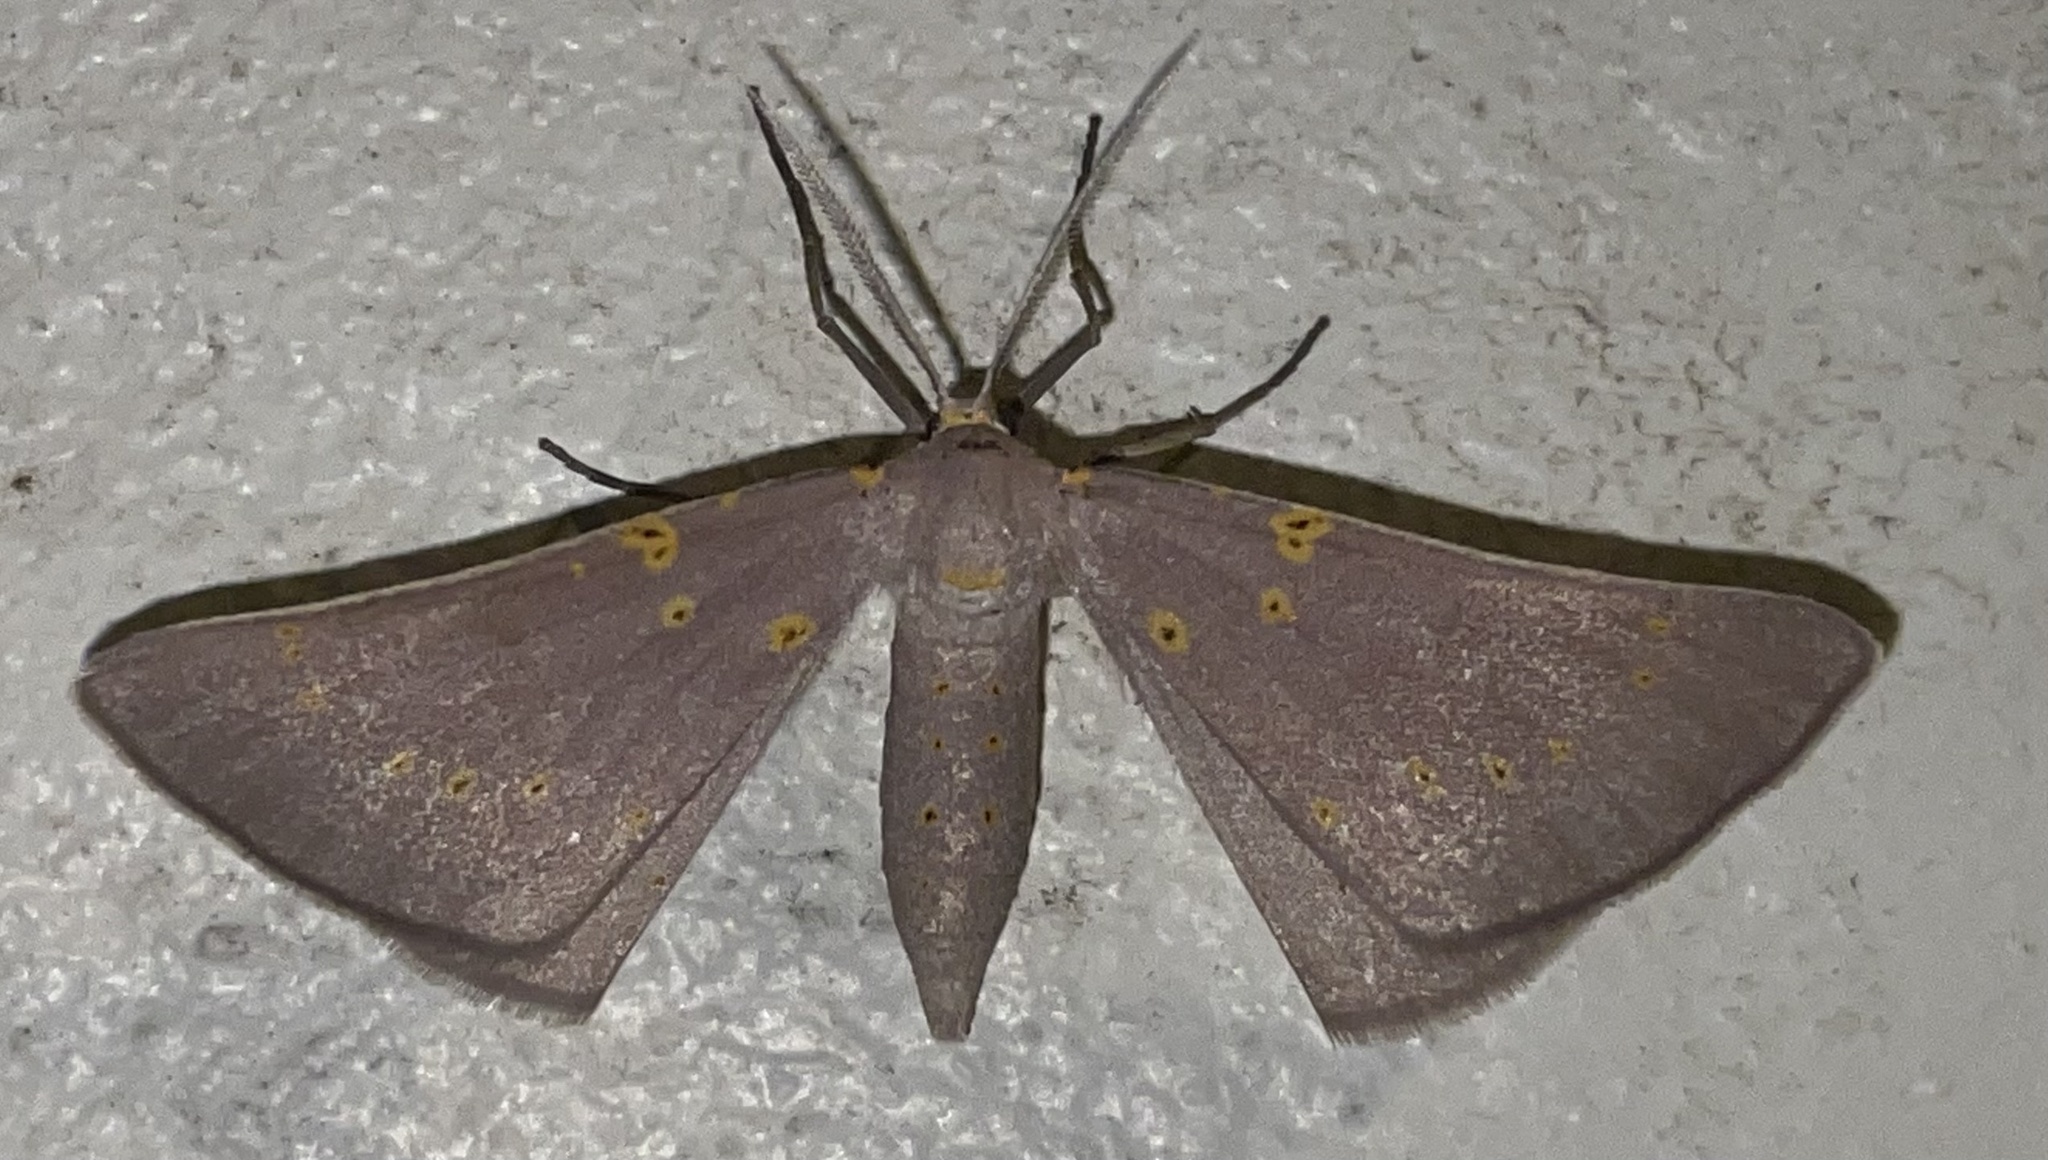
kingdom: Animalia
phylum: Arthropoda
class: Insecta
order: Lepidoptera
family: Geometridae
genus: Nassinia
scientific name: Nassinia caffraria
